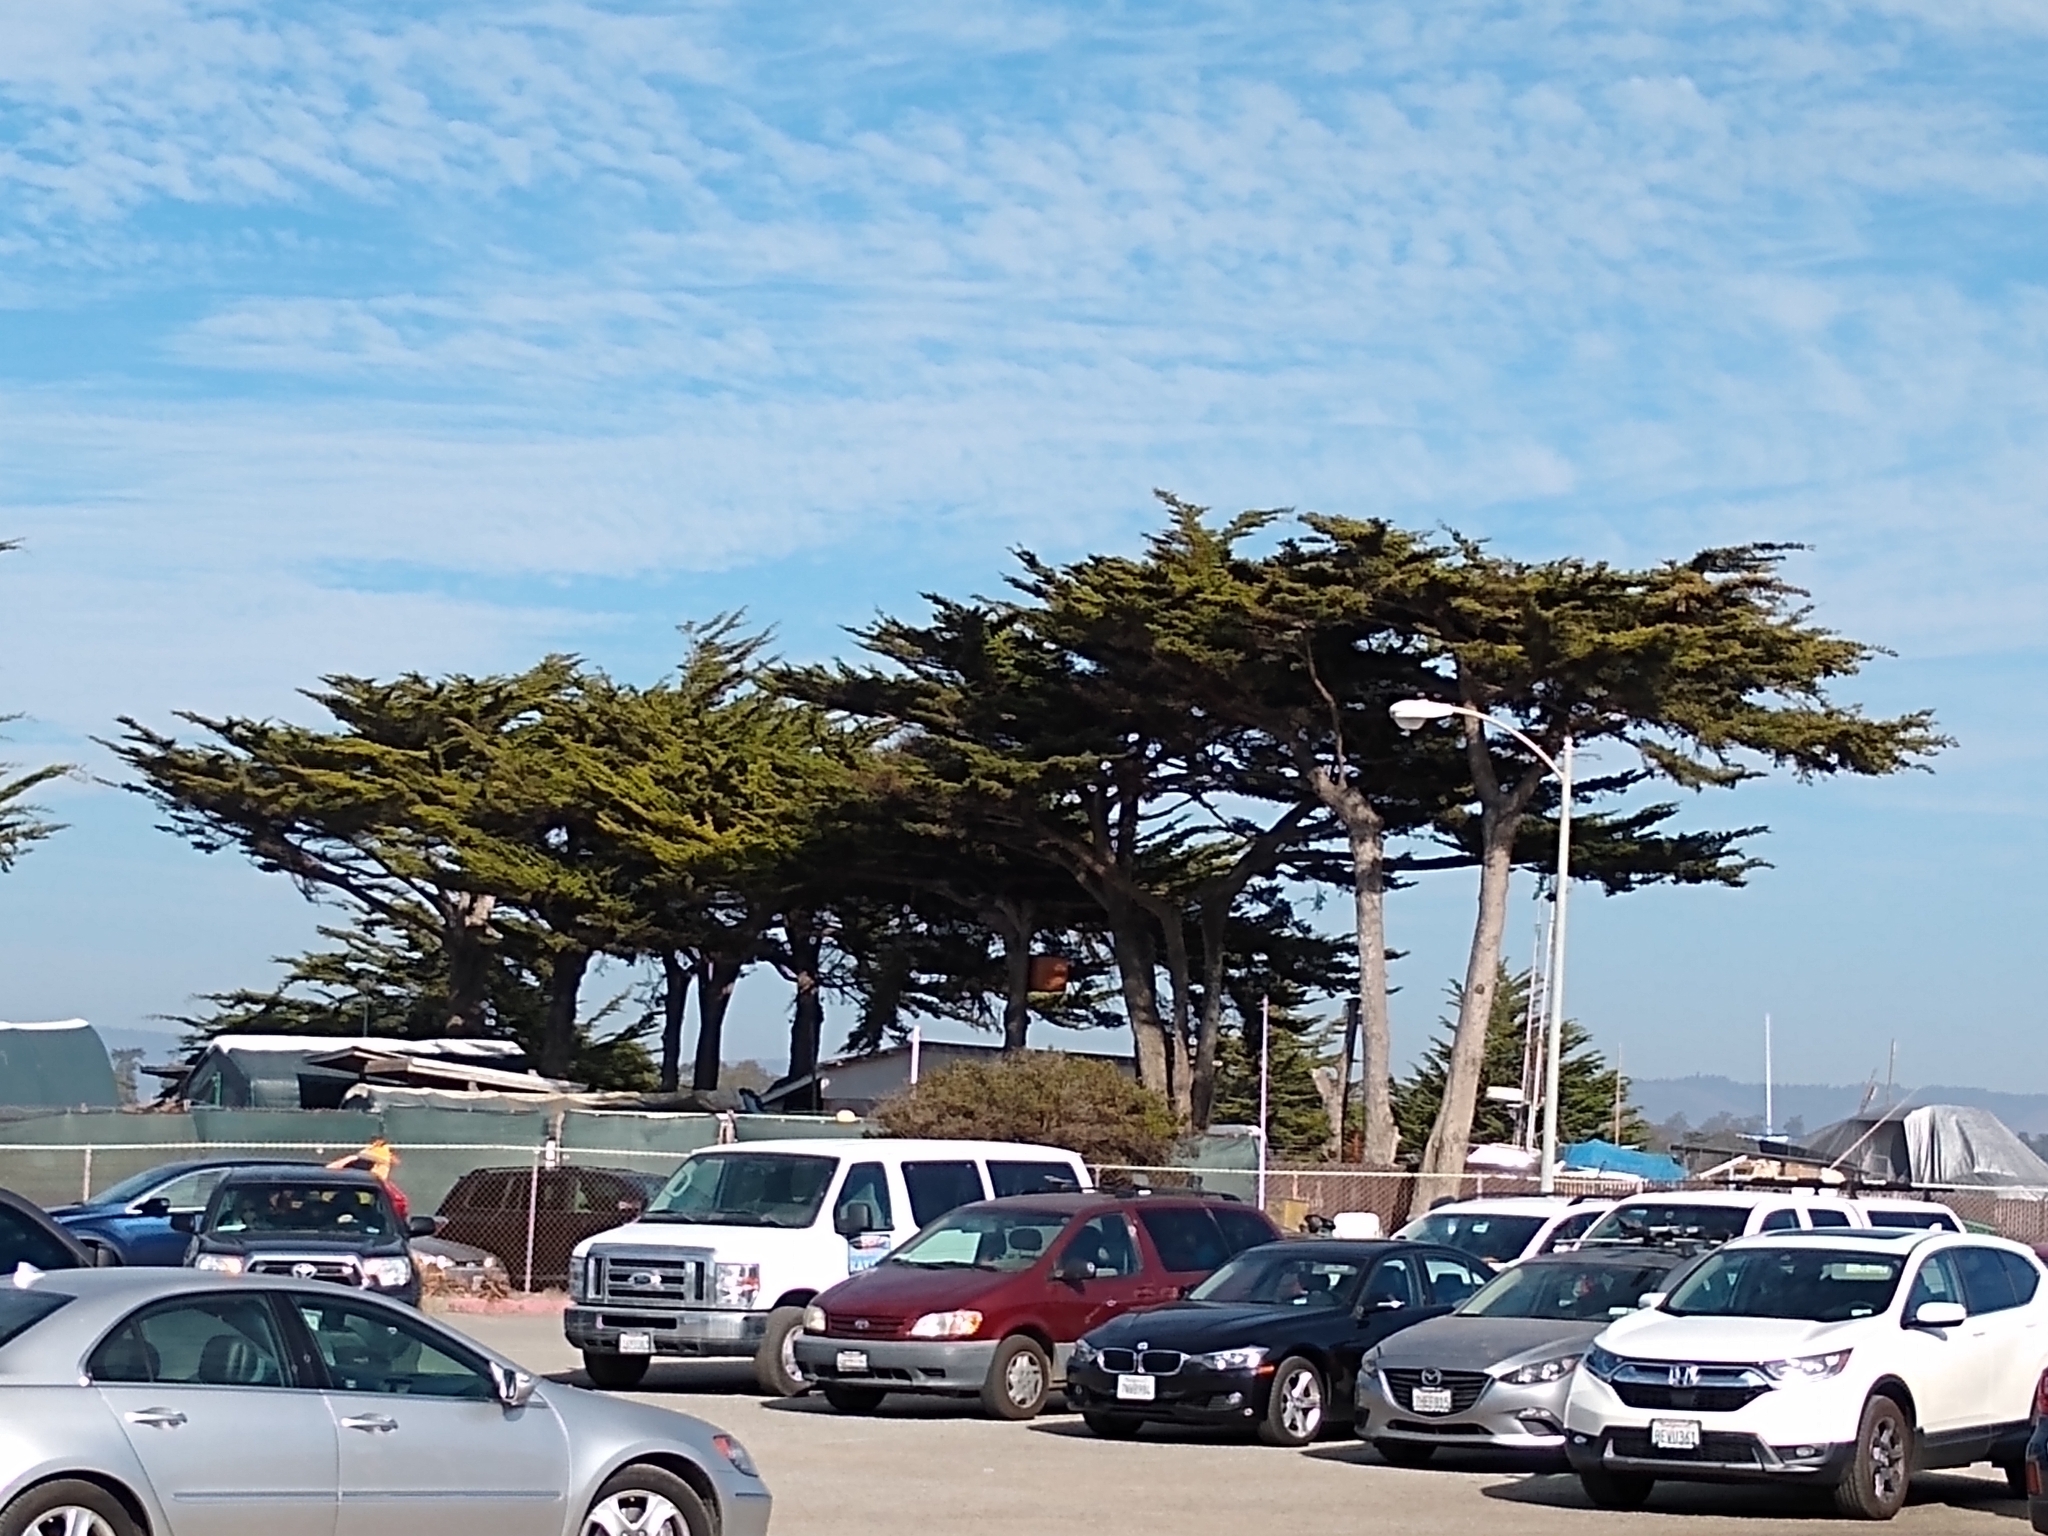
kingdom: Plantae
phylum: Tracheophyta
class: Pinopsida
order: Pinales
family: Cupressaceae
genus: Cupressus
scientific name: Cupressus macrocarpa
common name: Monterey cypress
